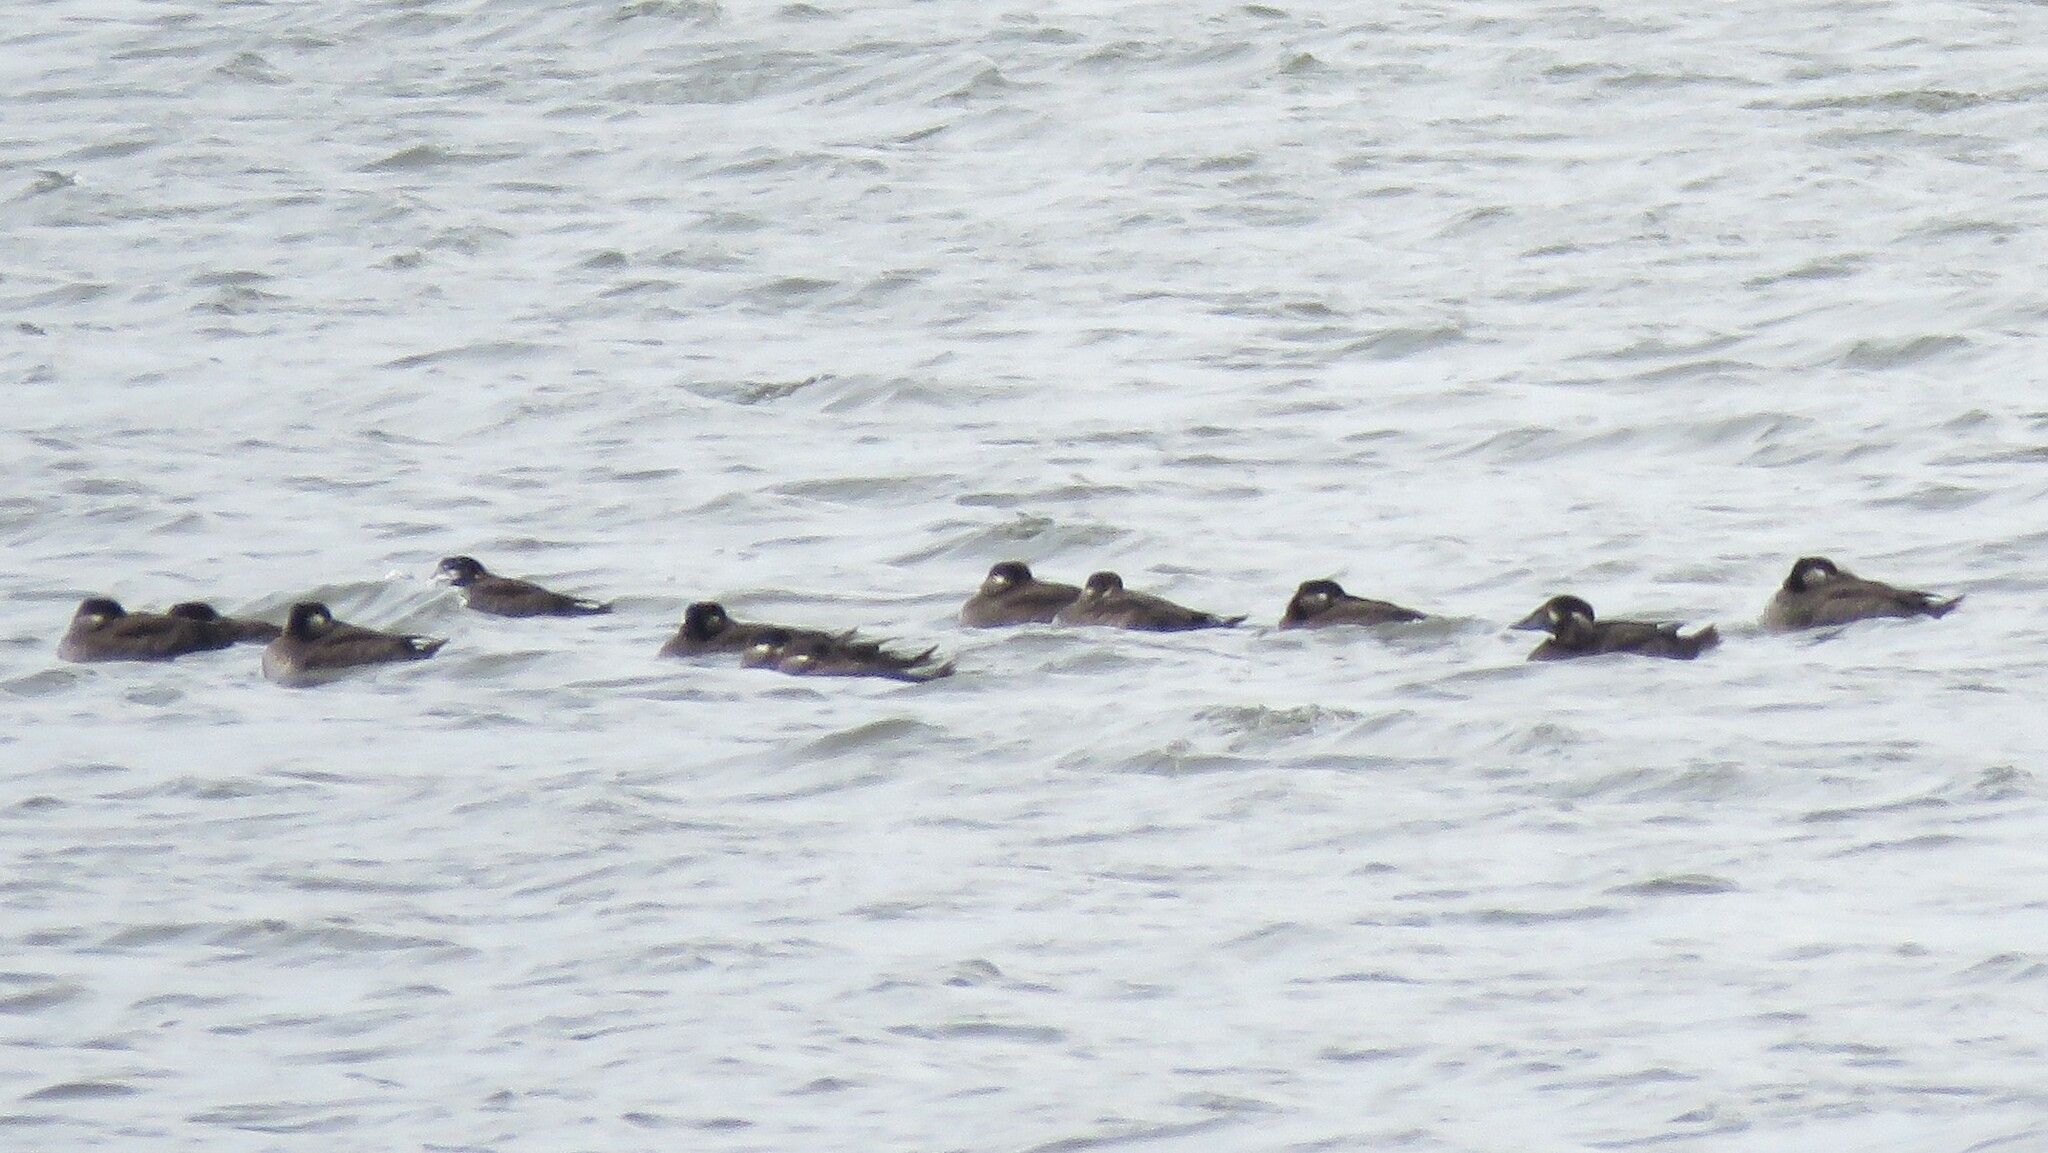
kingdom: Animalia
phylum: Chordata
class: Aves
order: Anseriformes
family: Anatidae
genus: Melanitta
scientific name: Melanitta perspicillata
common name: Surf scoter
